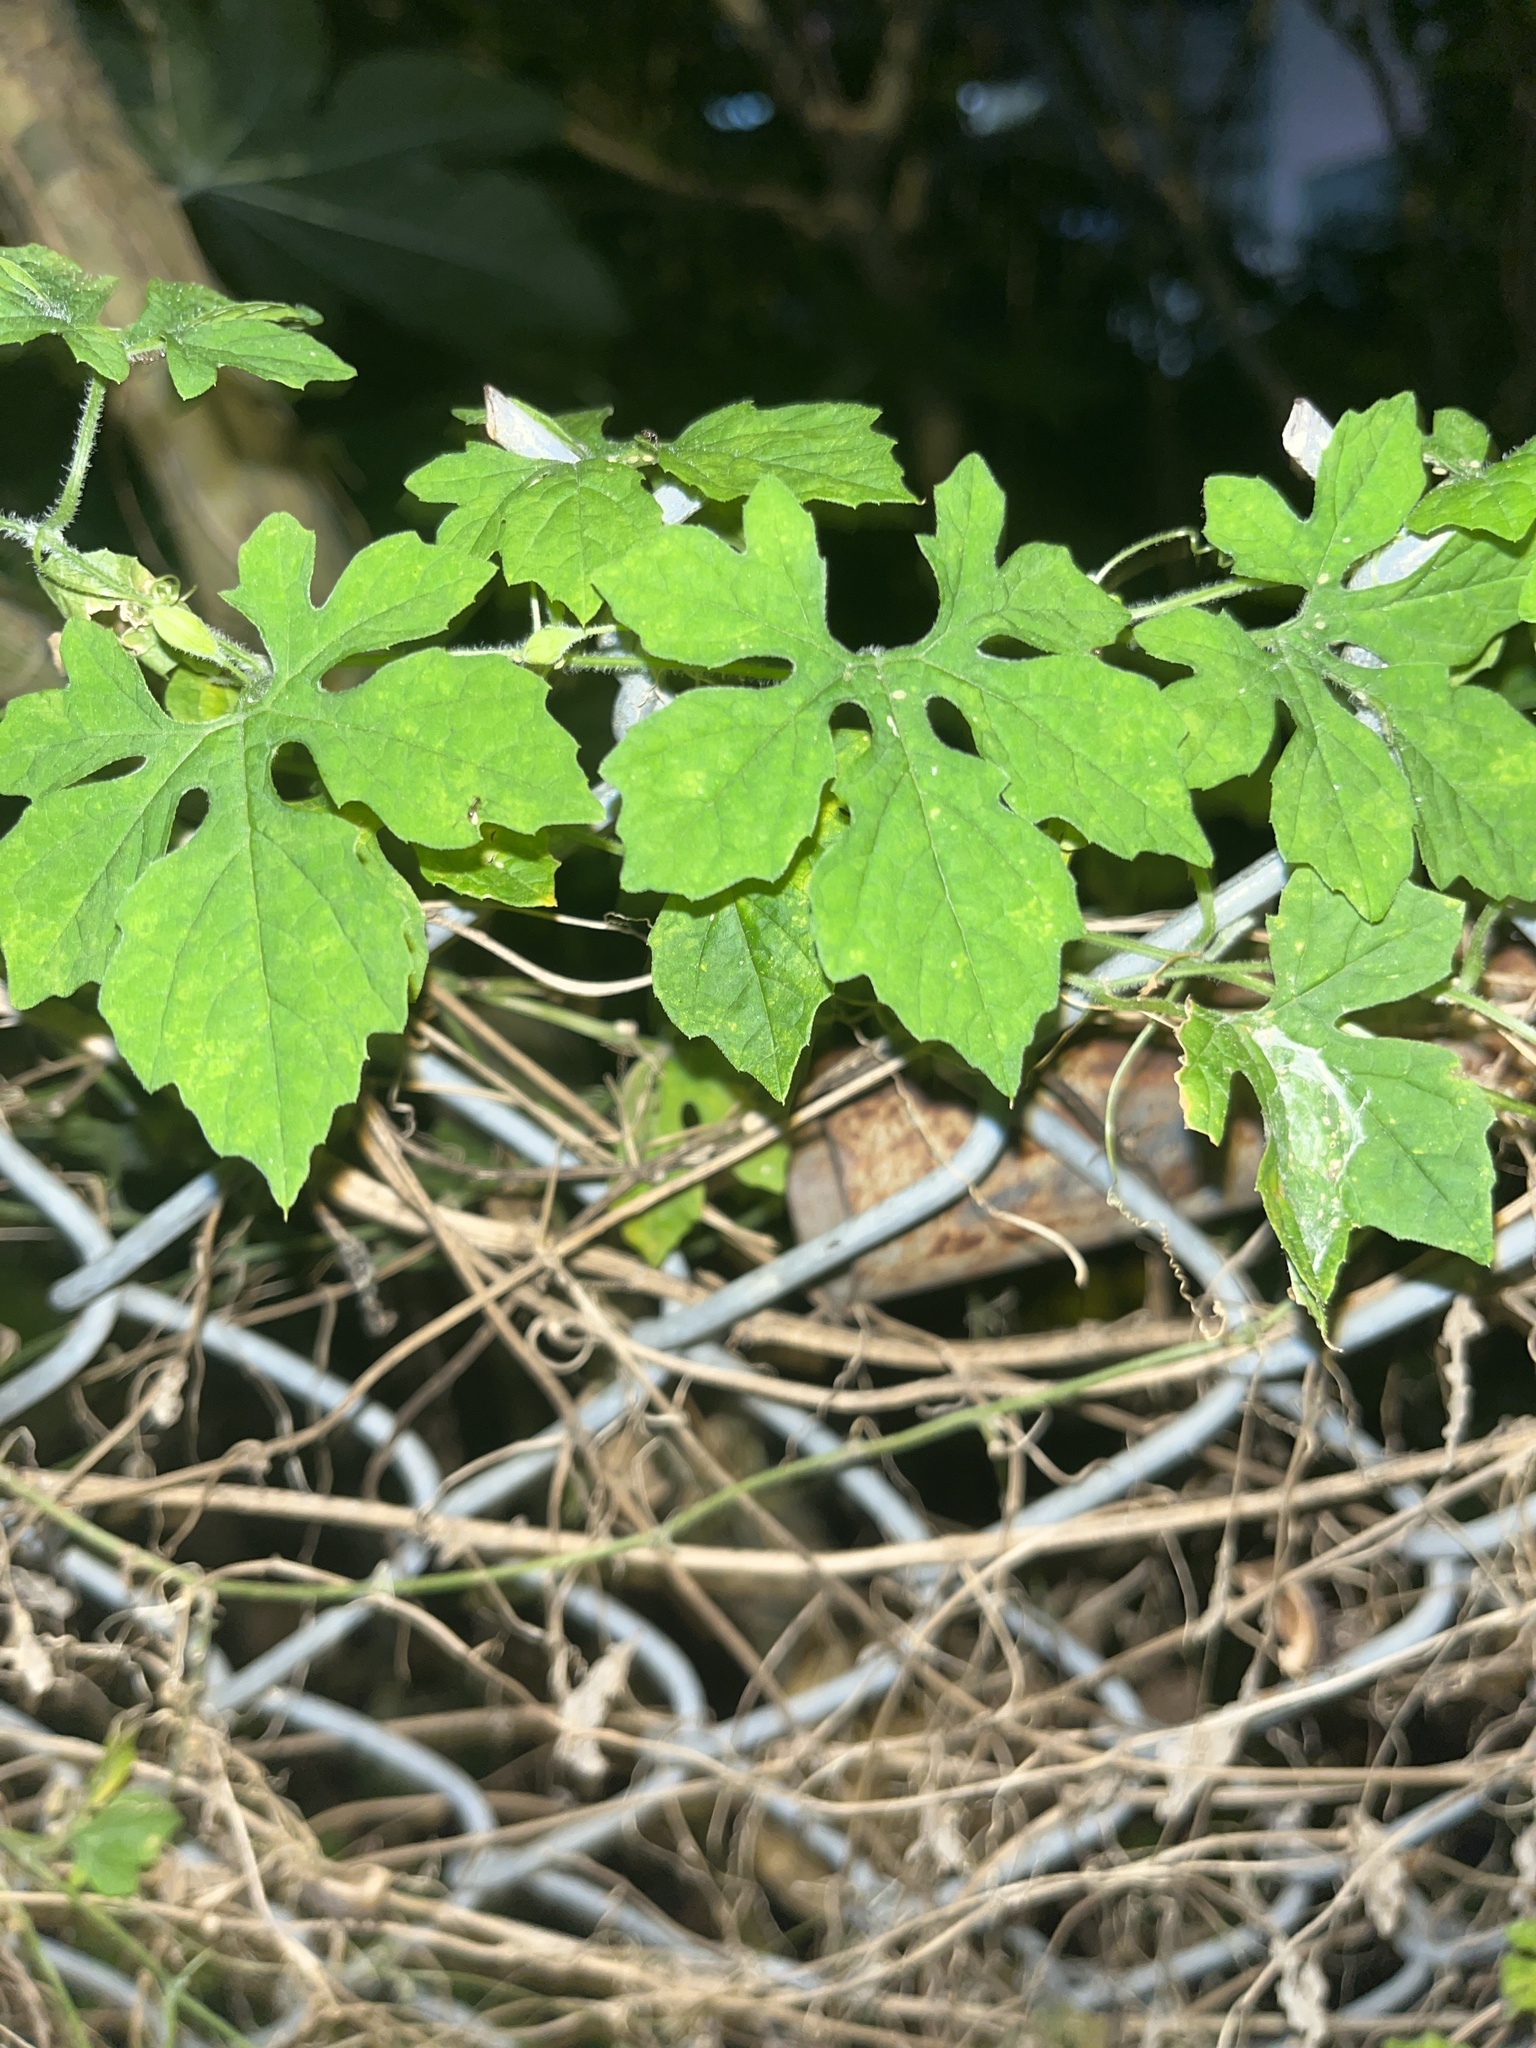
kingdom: Plantae
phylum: Tracheophyta
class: Magnoliopsida
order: Cucurbitales
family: Cucurbitaceae
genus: Momordica
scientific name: Momordica charantia
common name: Balsampear
